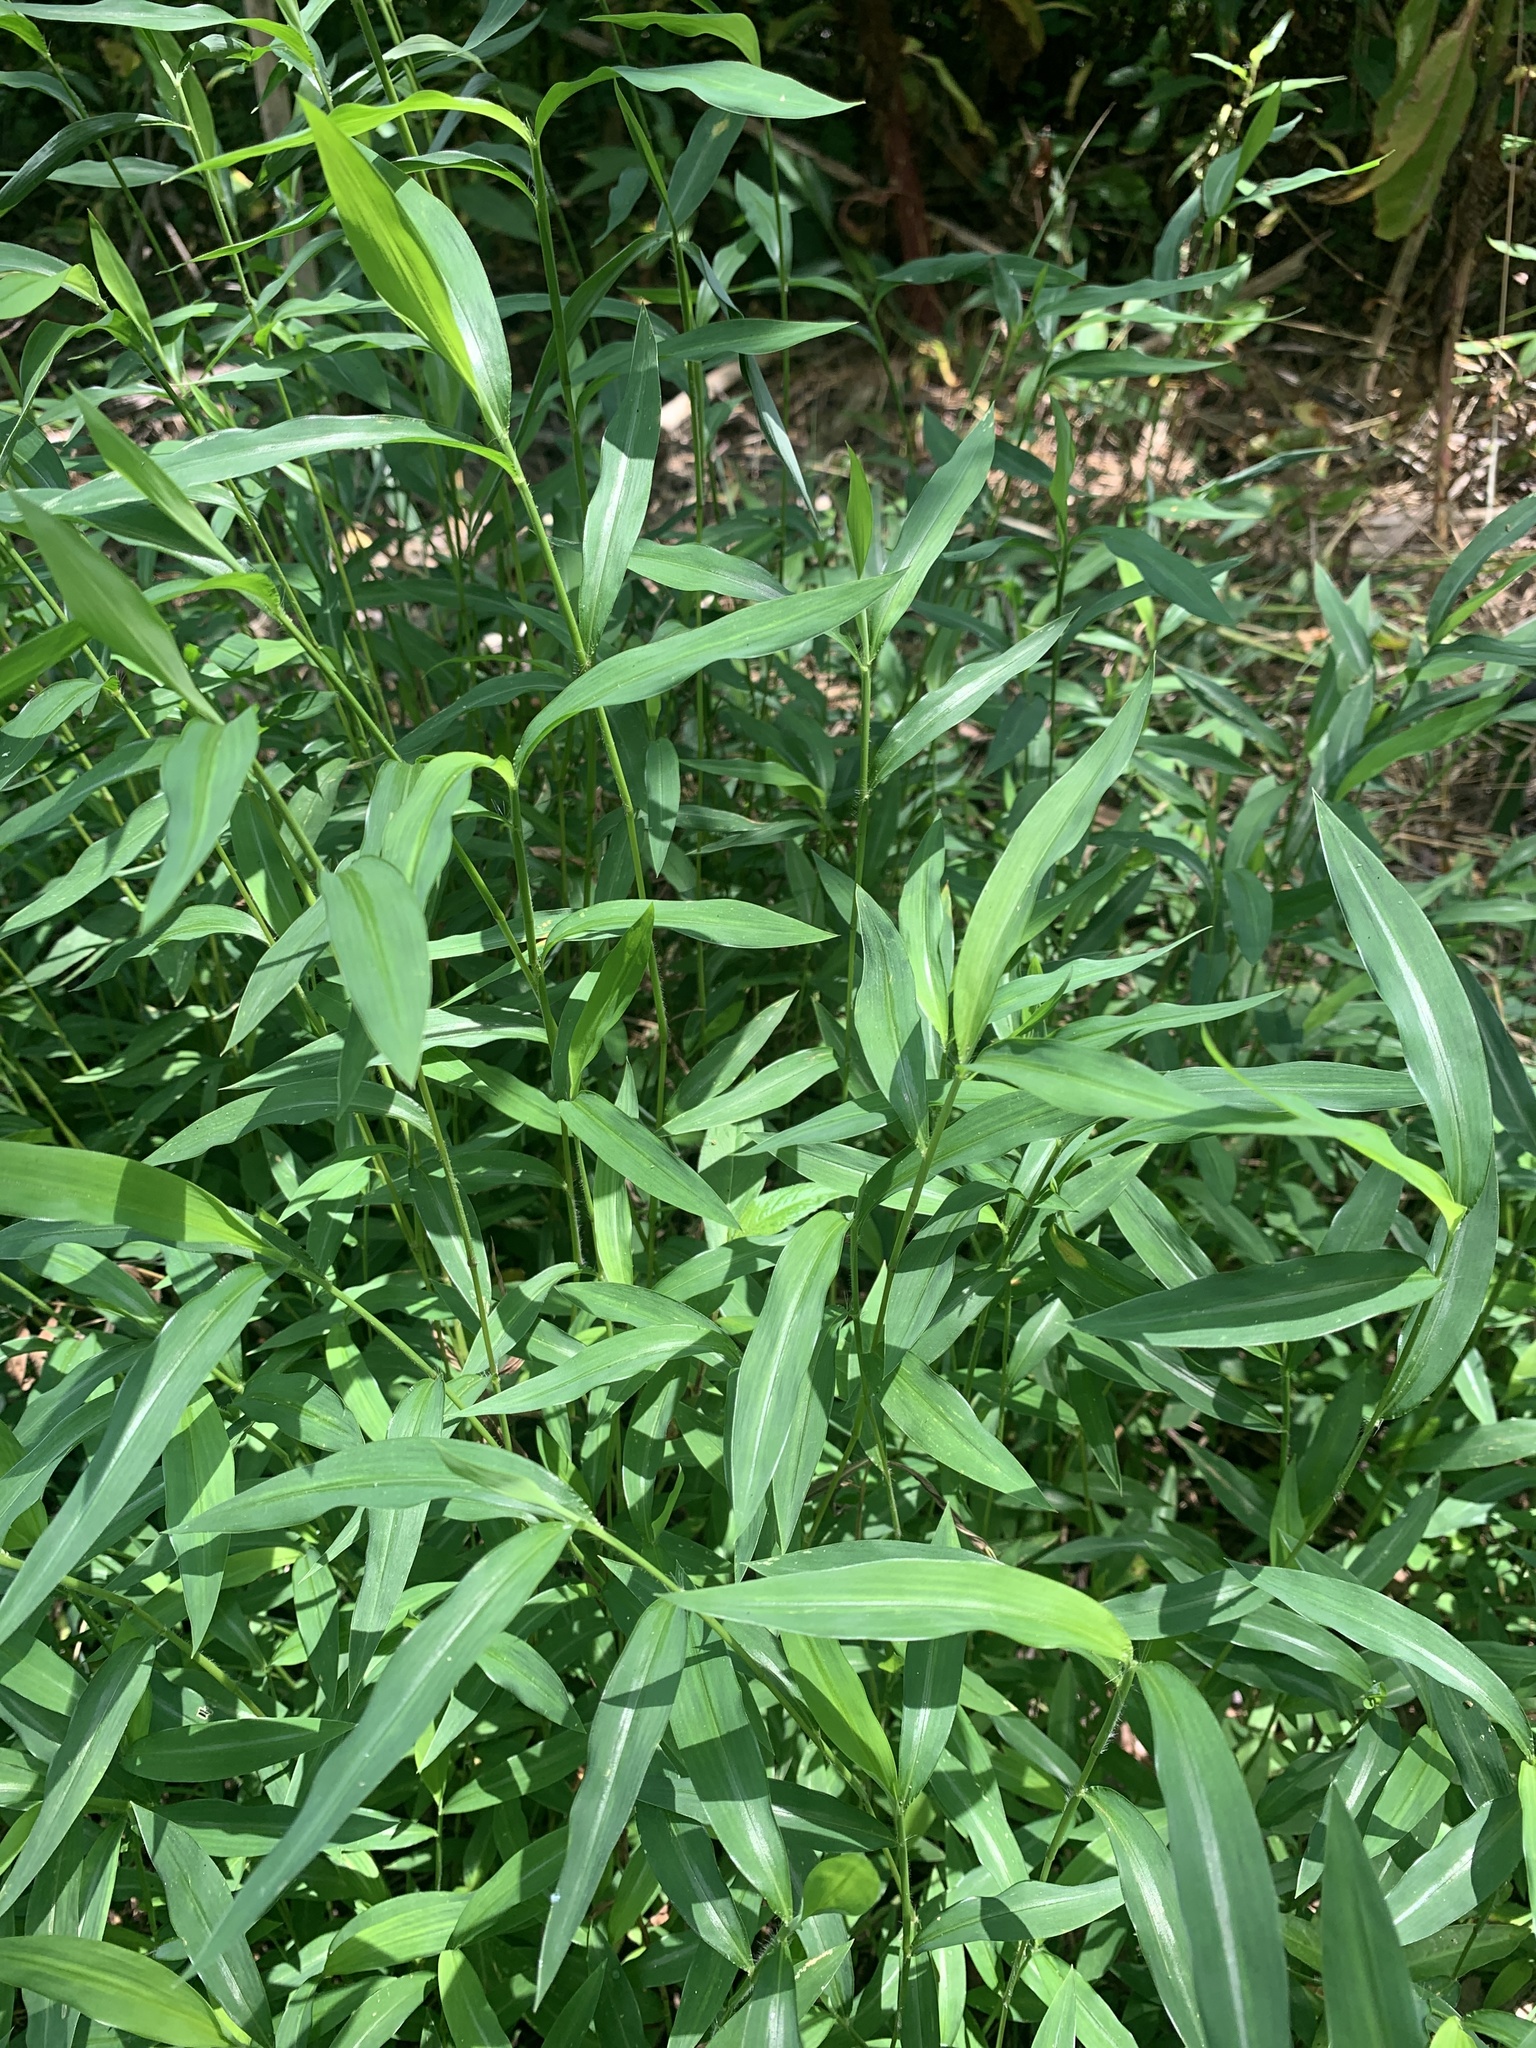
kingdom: Plantae
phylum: Tracheophyta
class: Liliopsida
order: Poales
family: Poaceae
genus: Microstegium
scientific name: Microstegium vimineum
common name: Japanese stiltgrass
